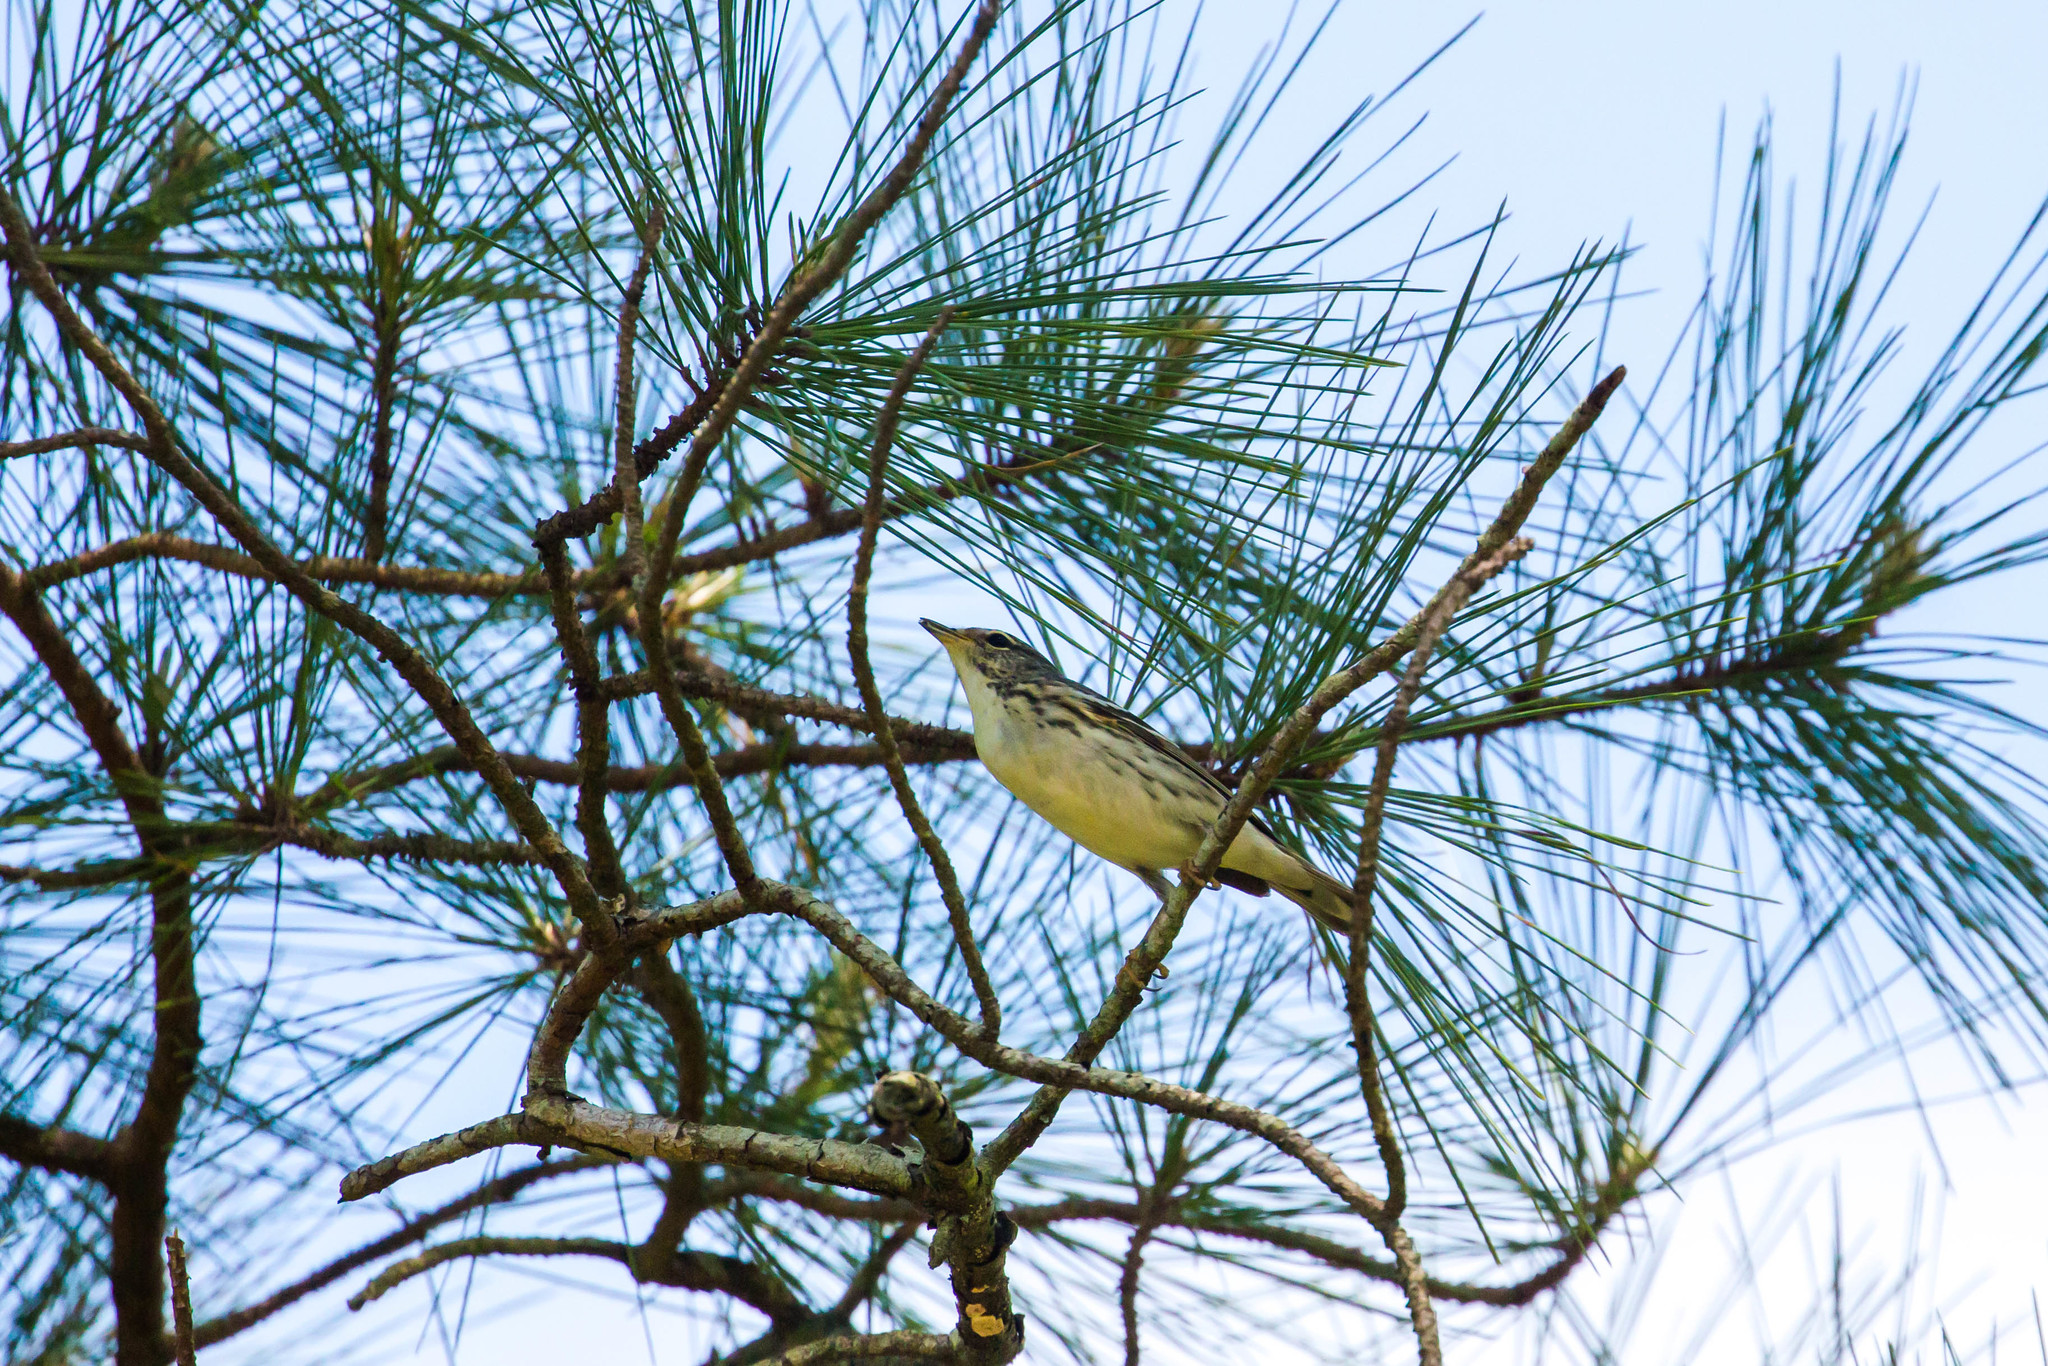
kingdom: Animalia
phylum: Chordata
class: Aves
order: Passeriformes
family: Parulidae
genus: Setophaga
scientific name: Setophaga striata
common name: Blackpoll warbler
